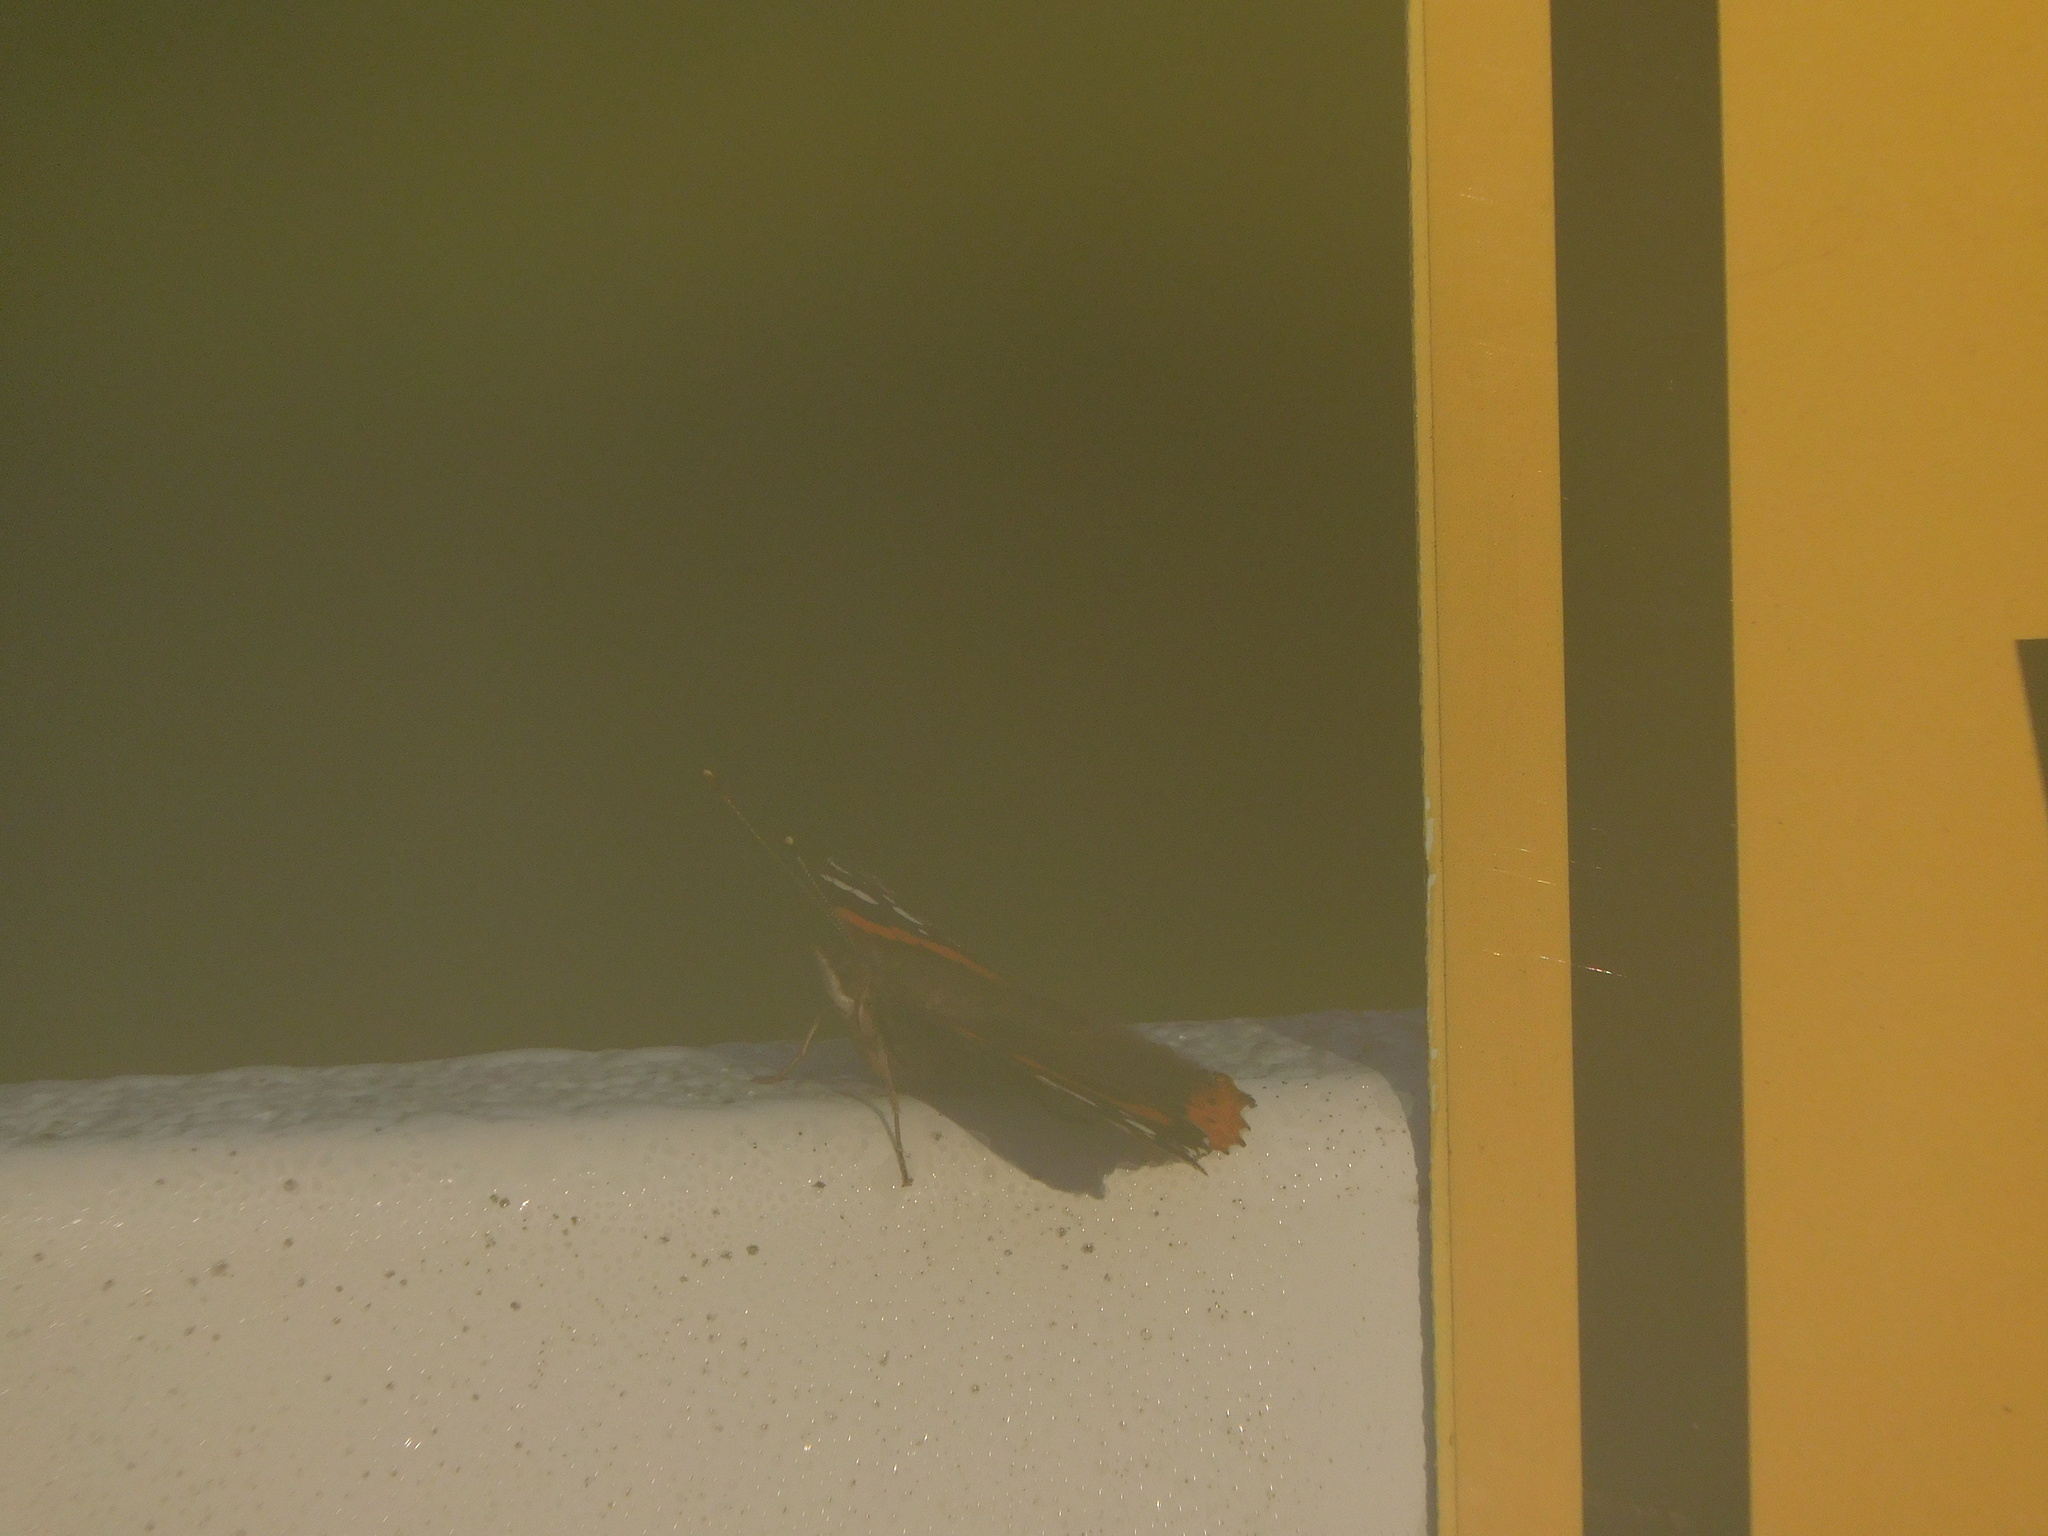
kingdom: Animalia
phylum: Arthropoda
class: Insecta
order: Lepidoptera
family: Nymphalidae
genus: Vanessa
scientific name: Vanessa atalanta
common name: Red admiral
